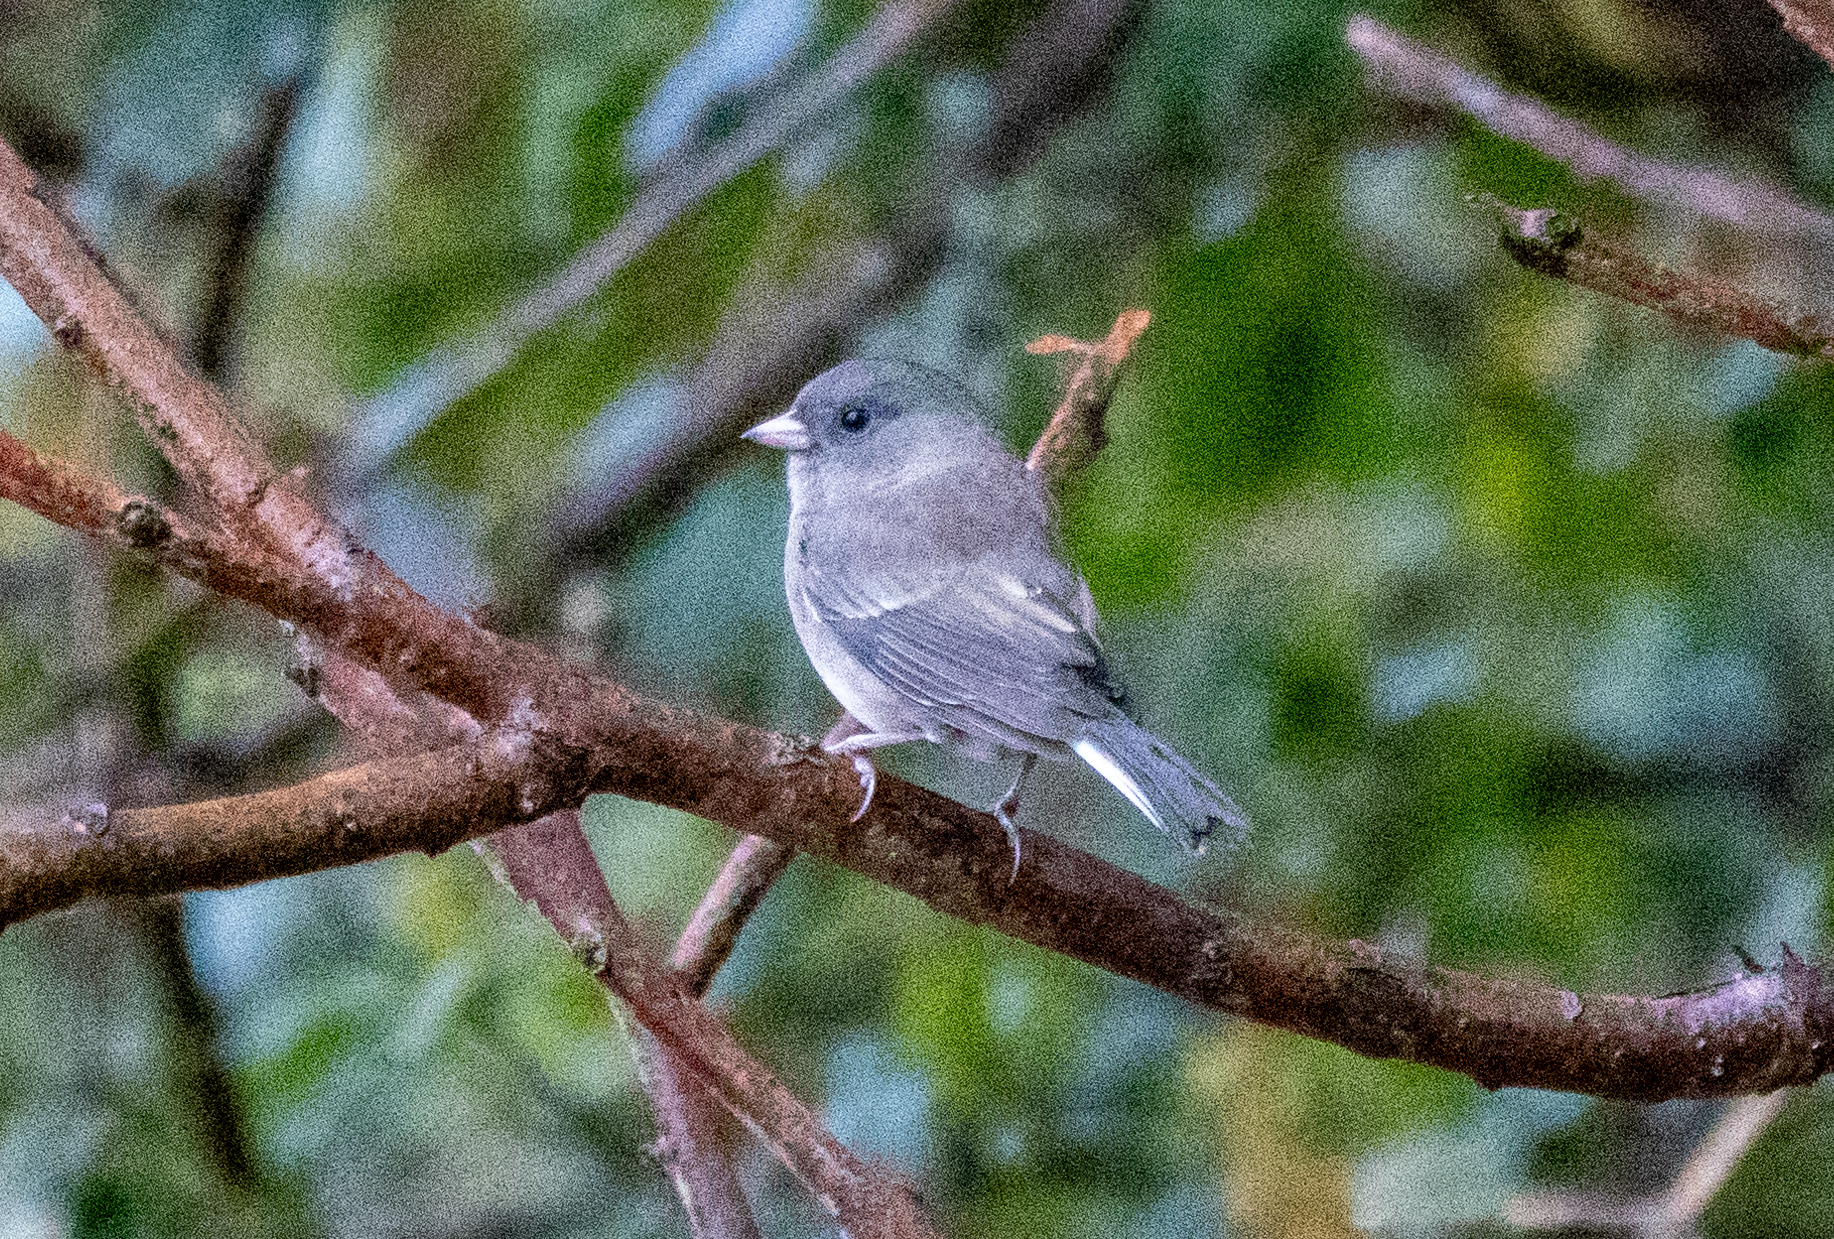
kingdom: Animalia
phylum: Chordata
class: Aves
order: Passeriformes
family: Passerellidae
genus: Junco
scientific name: Junco hyemalis
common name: Dark-eyed junco
